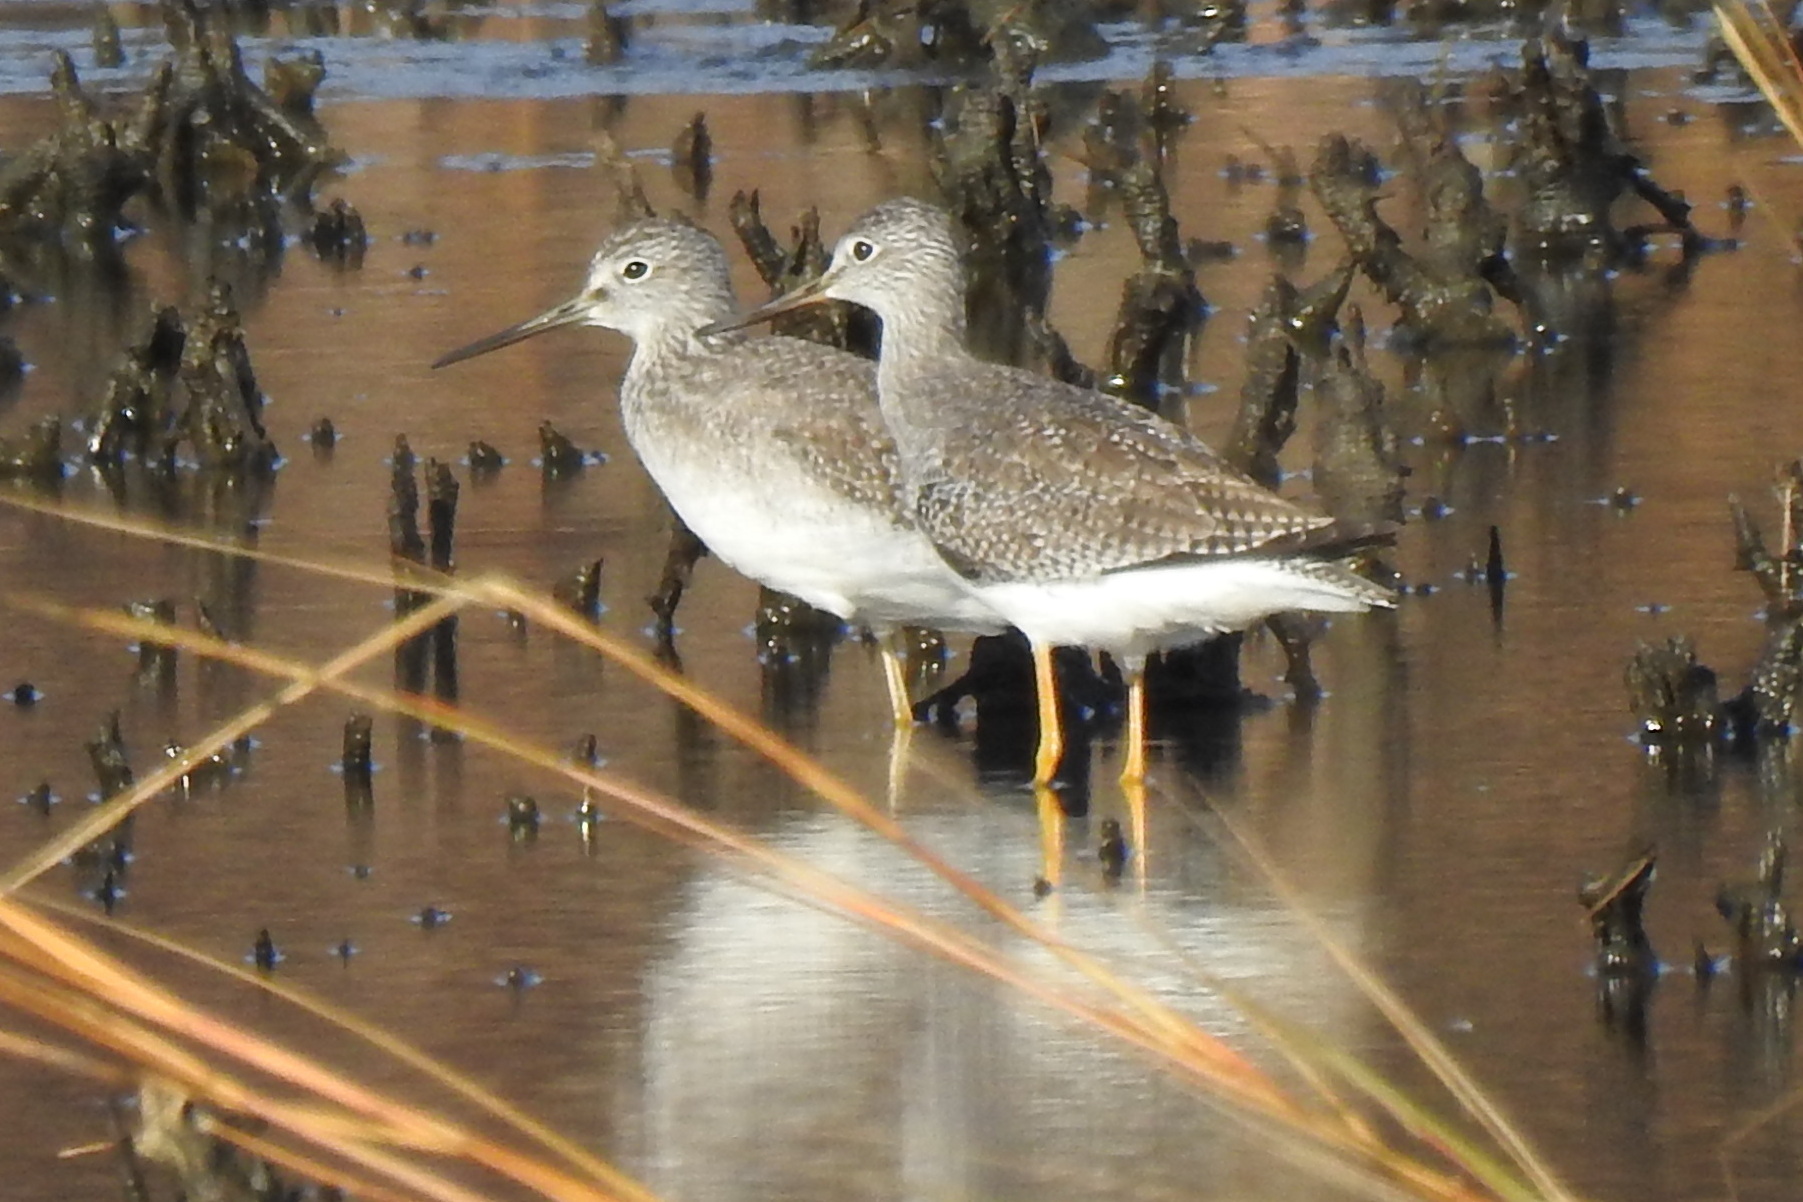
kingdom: Animalia
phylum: Chordata
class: Aves
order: Charadriiformes
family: Scolopacidae
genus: Tringa
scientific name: Tringa melanoleuca
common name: Greater yellowlegs
